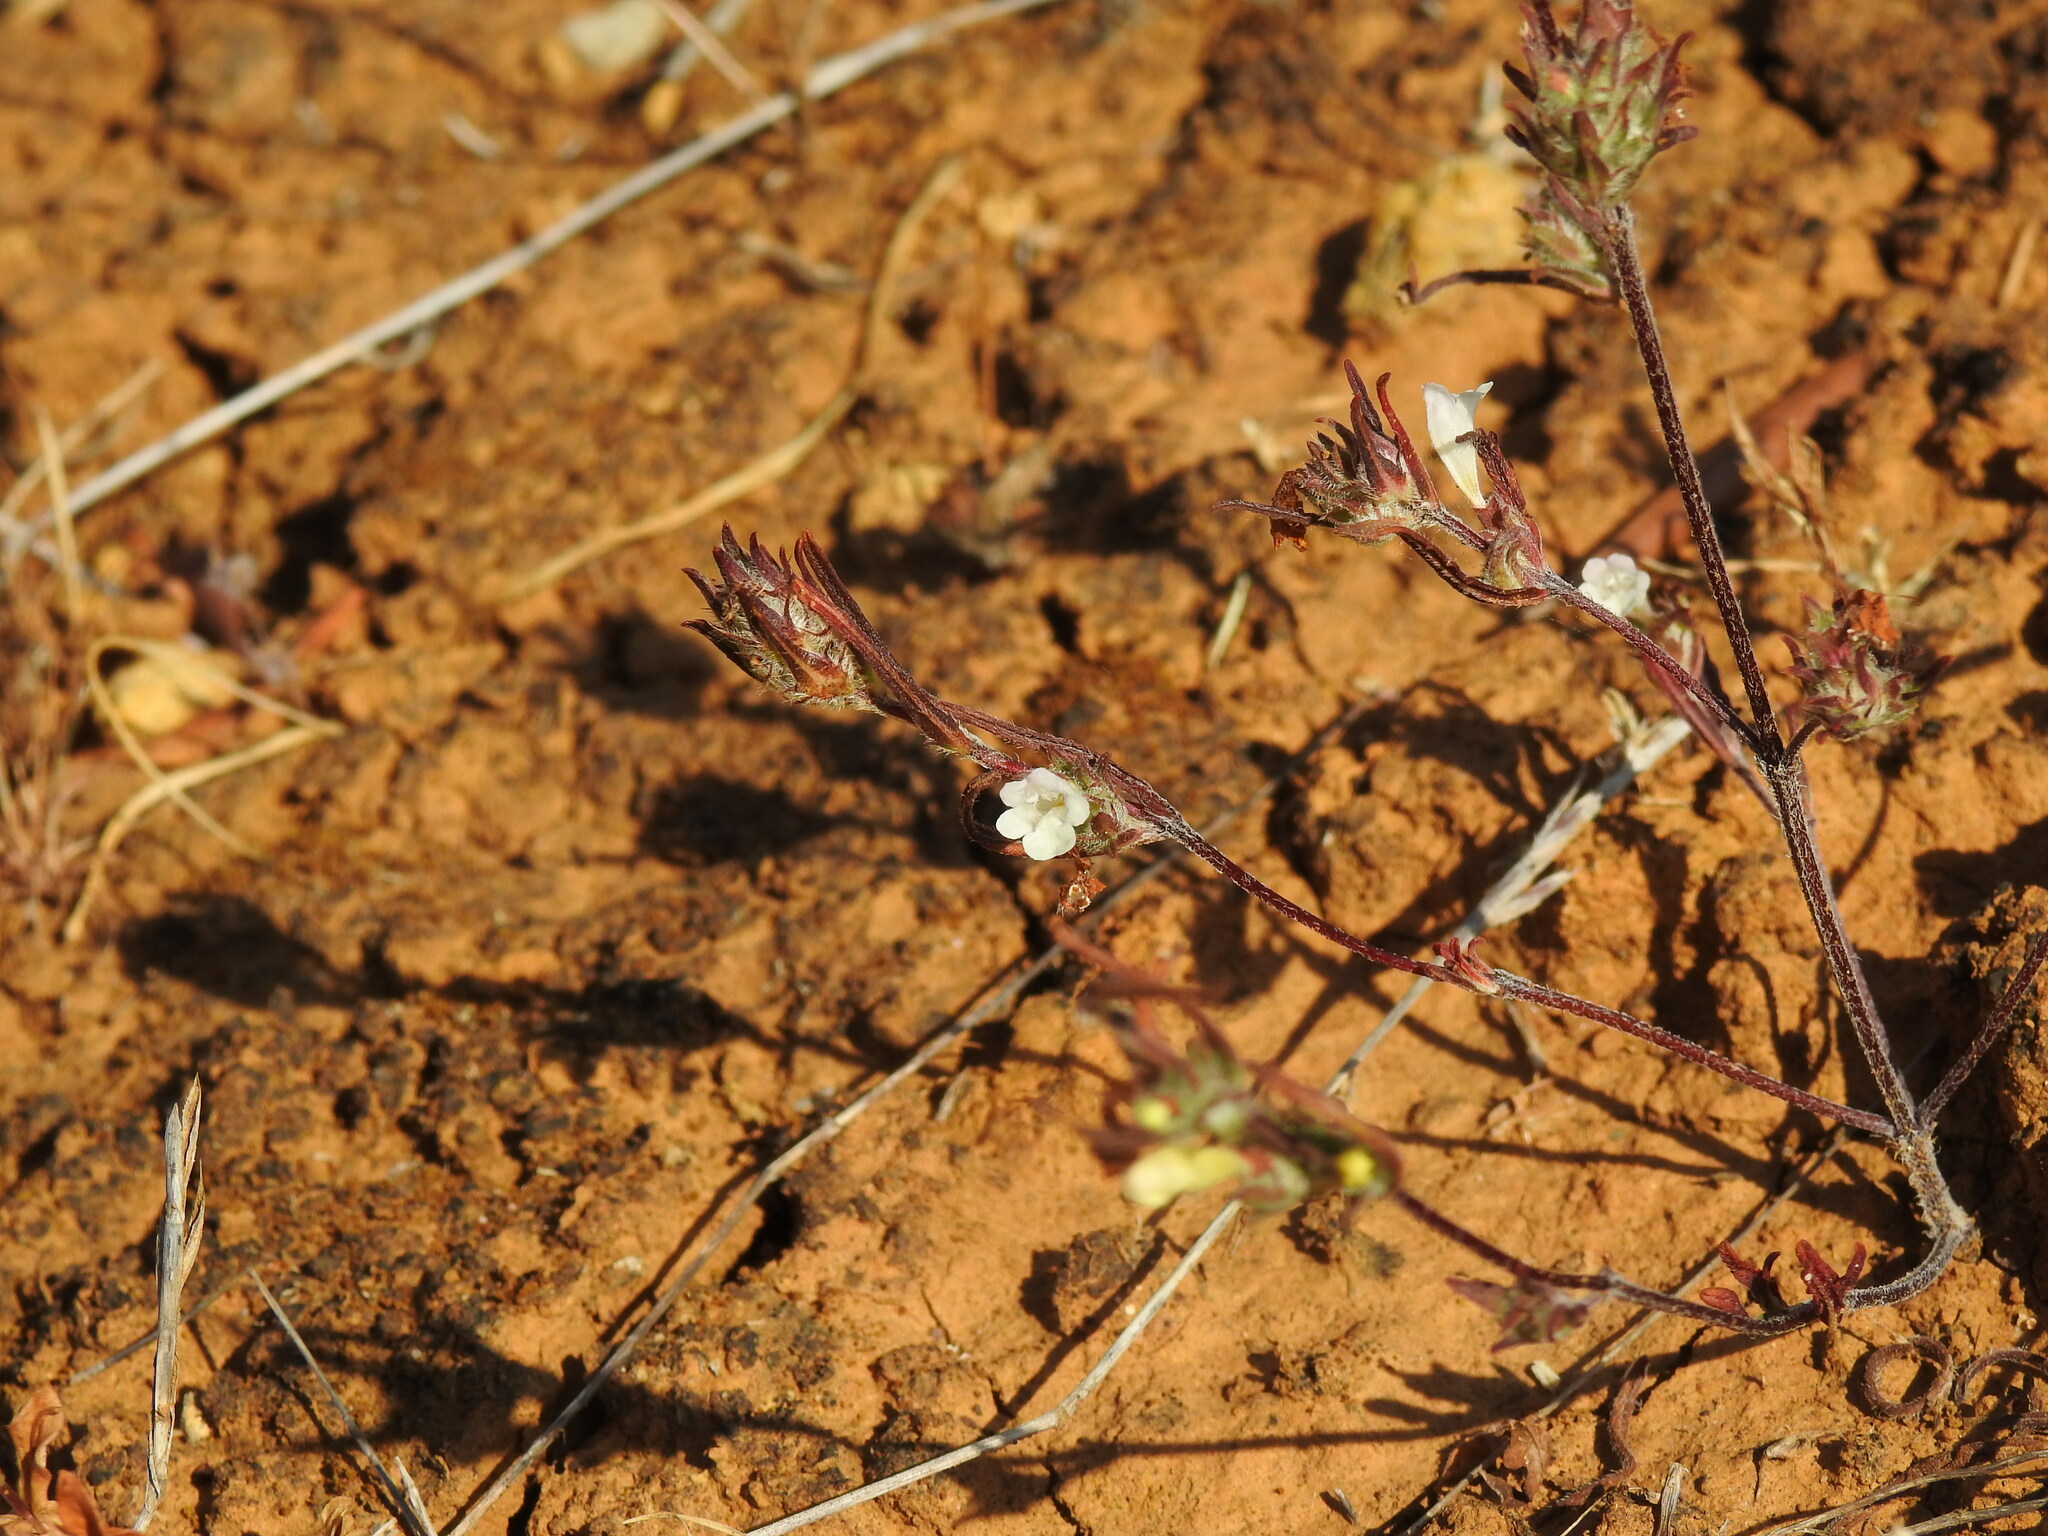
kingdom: Plantae
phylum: Tracheophyta
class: Magnoliopsida
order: Lamiales
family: Lamiaceae
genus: Cleonia
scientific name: Cleonia lusitanica
